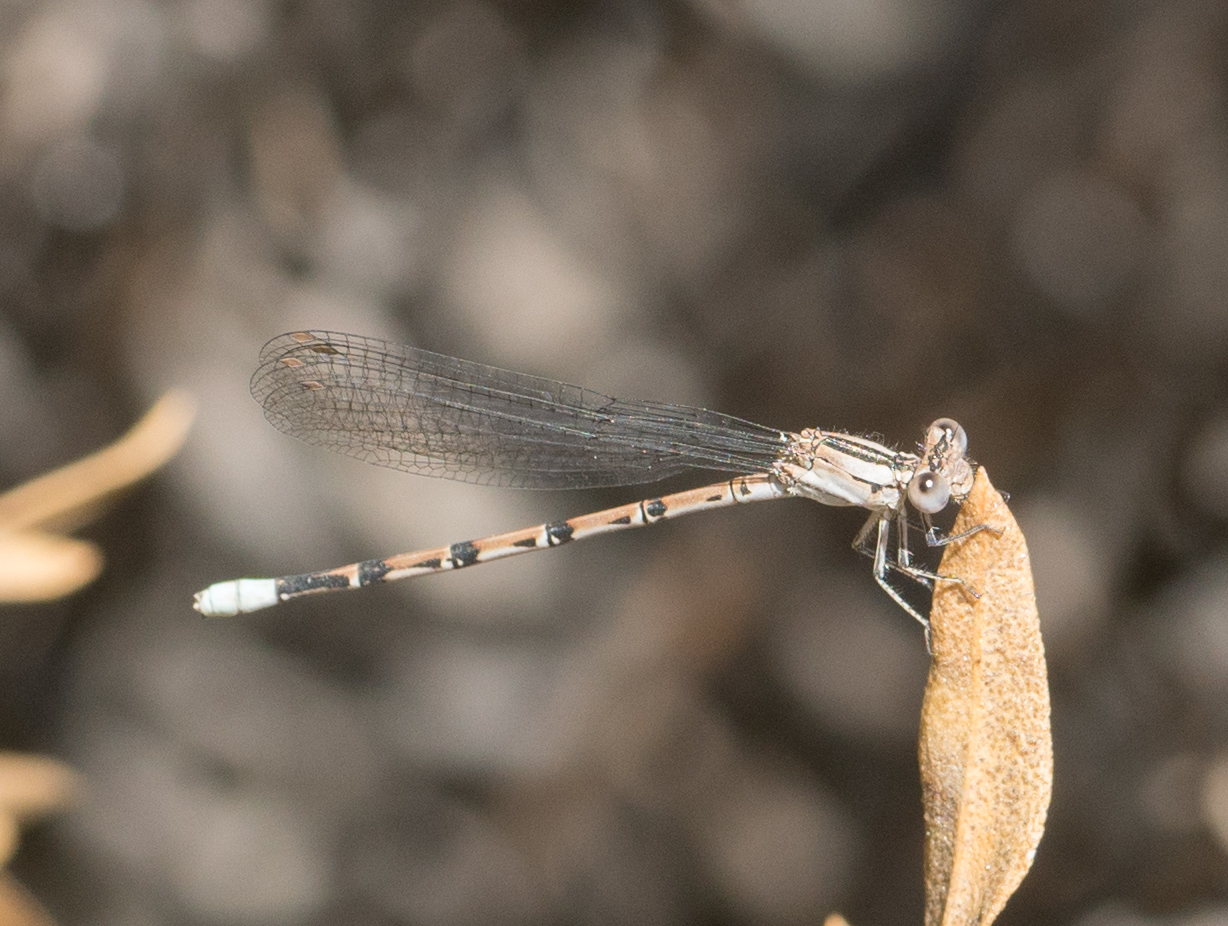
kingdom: Animalia
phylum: Arthropoda
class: Insecta
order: Odonata
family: Coenagrionidae
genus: Argia
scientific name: Argia vivida
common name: Vivid dancer
